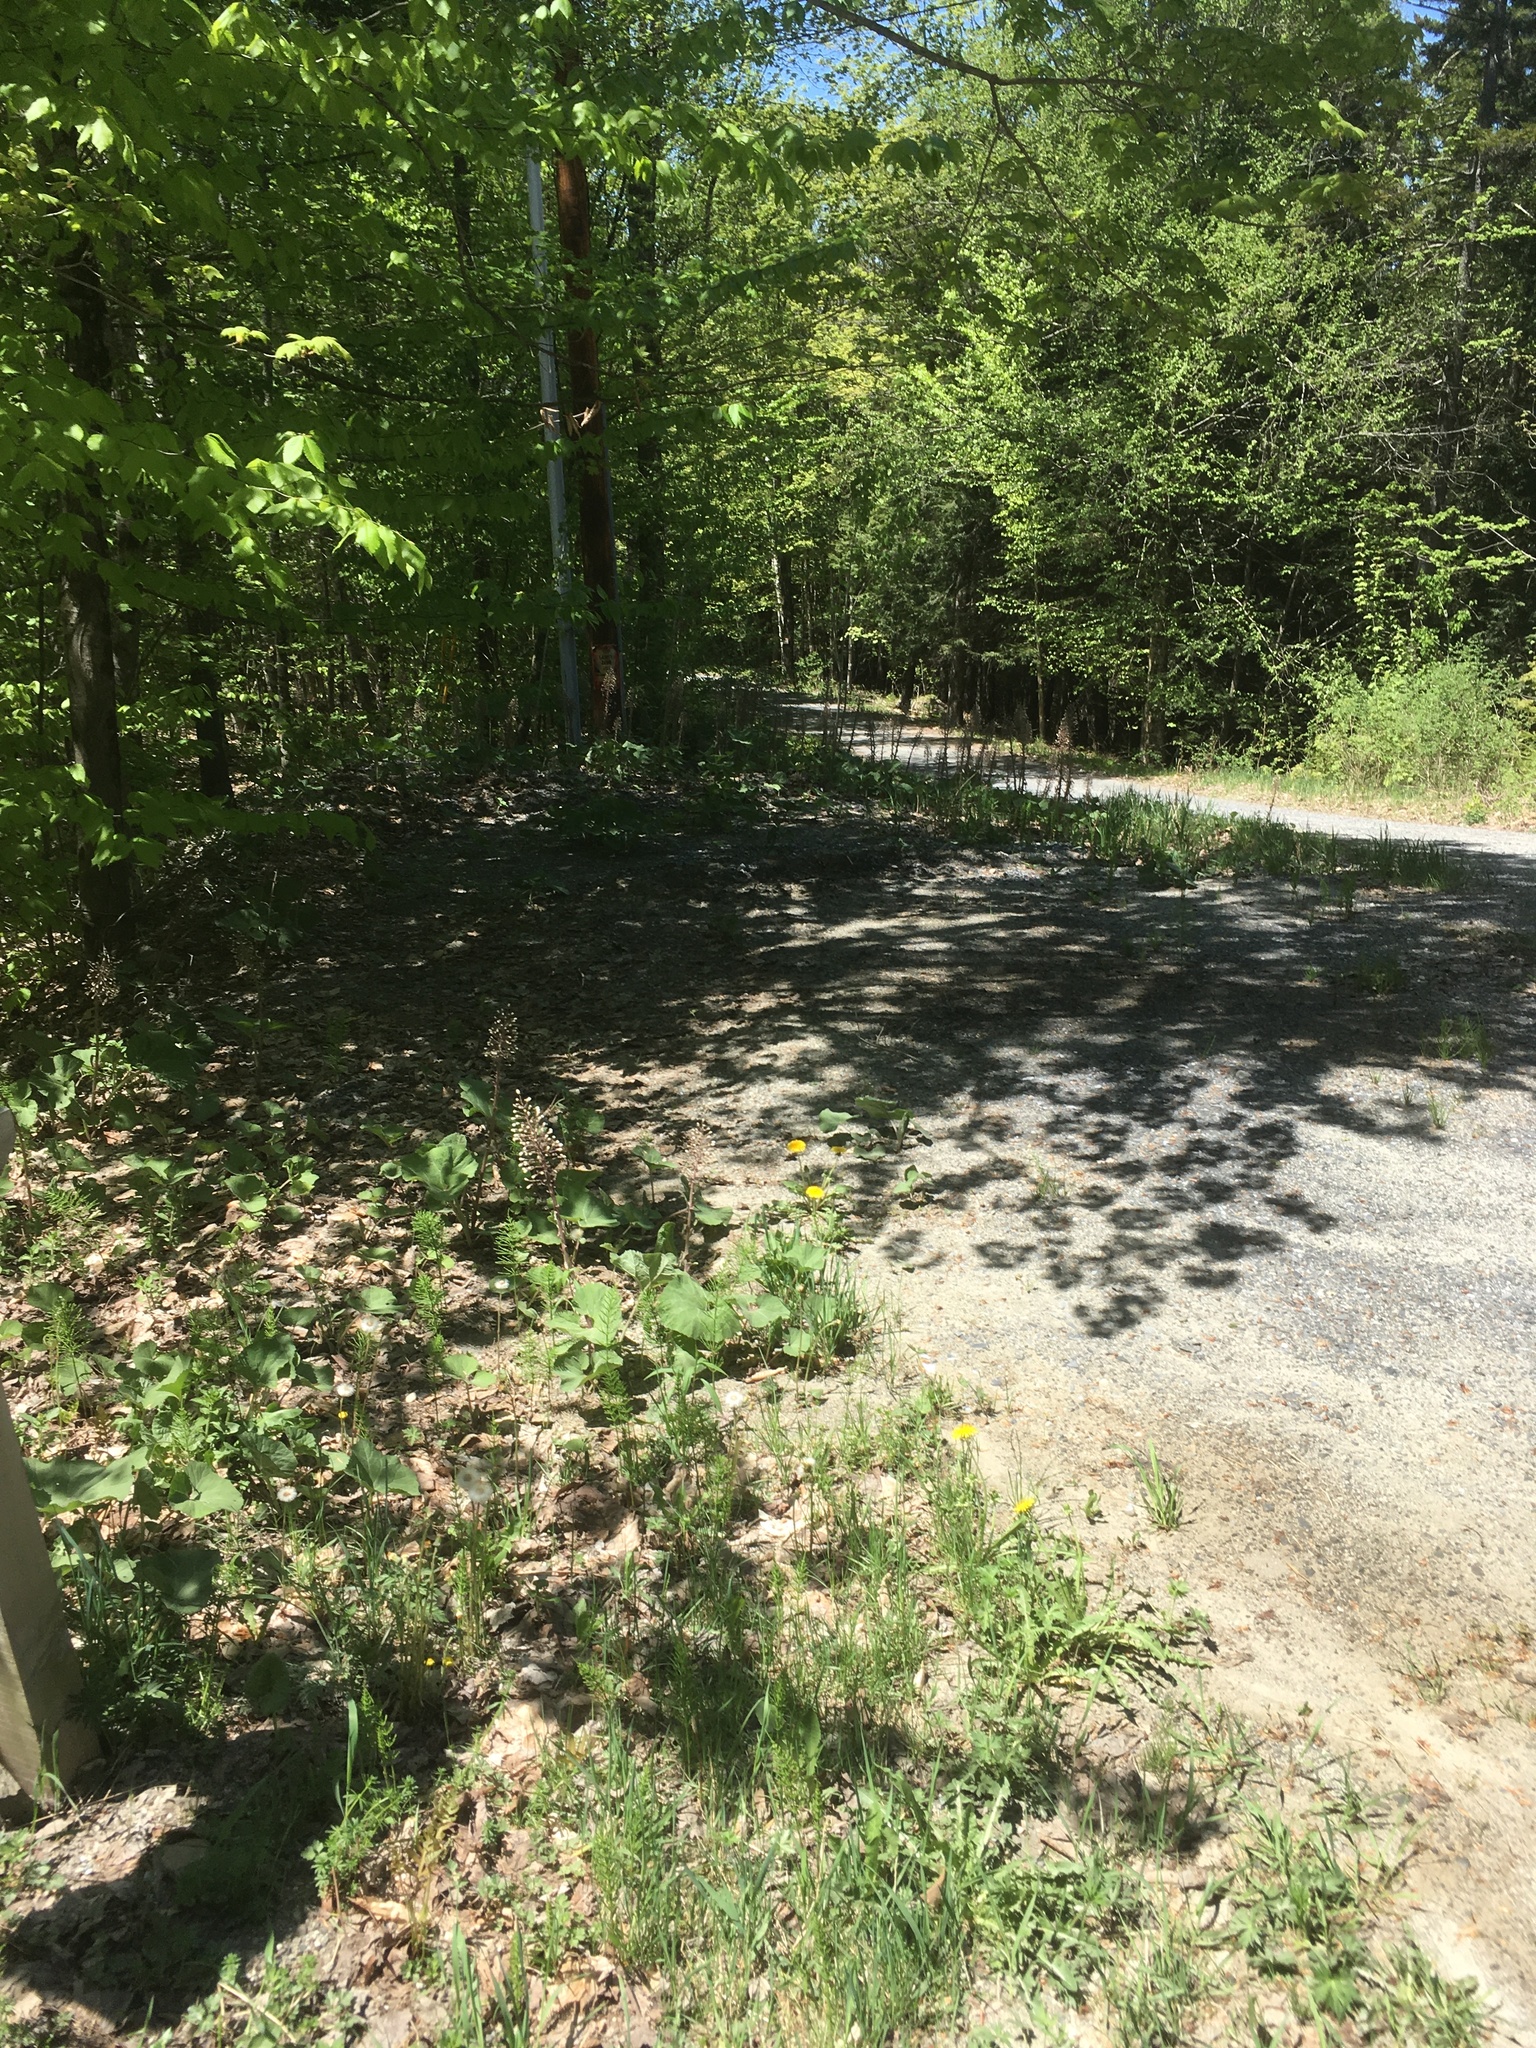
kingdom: Plantae
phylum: Tracheophyta
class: Magnoliopsida
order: Asterales
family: Asteraceae
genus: Petasites
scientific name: Petasites hybridus
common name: Butterbur
